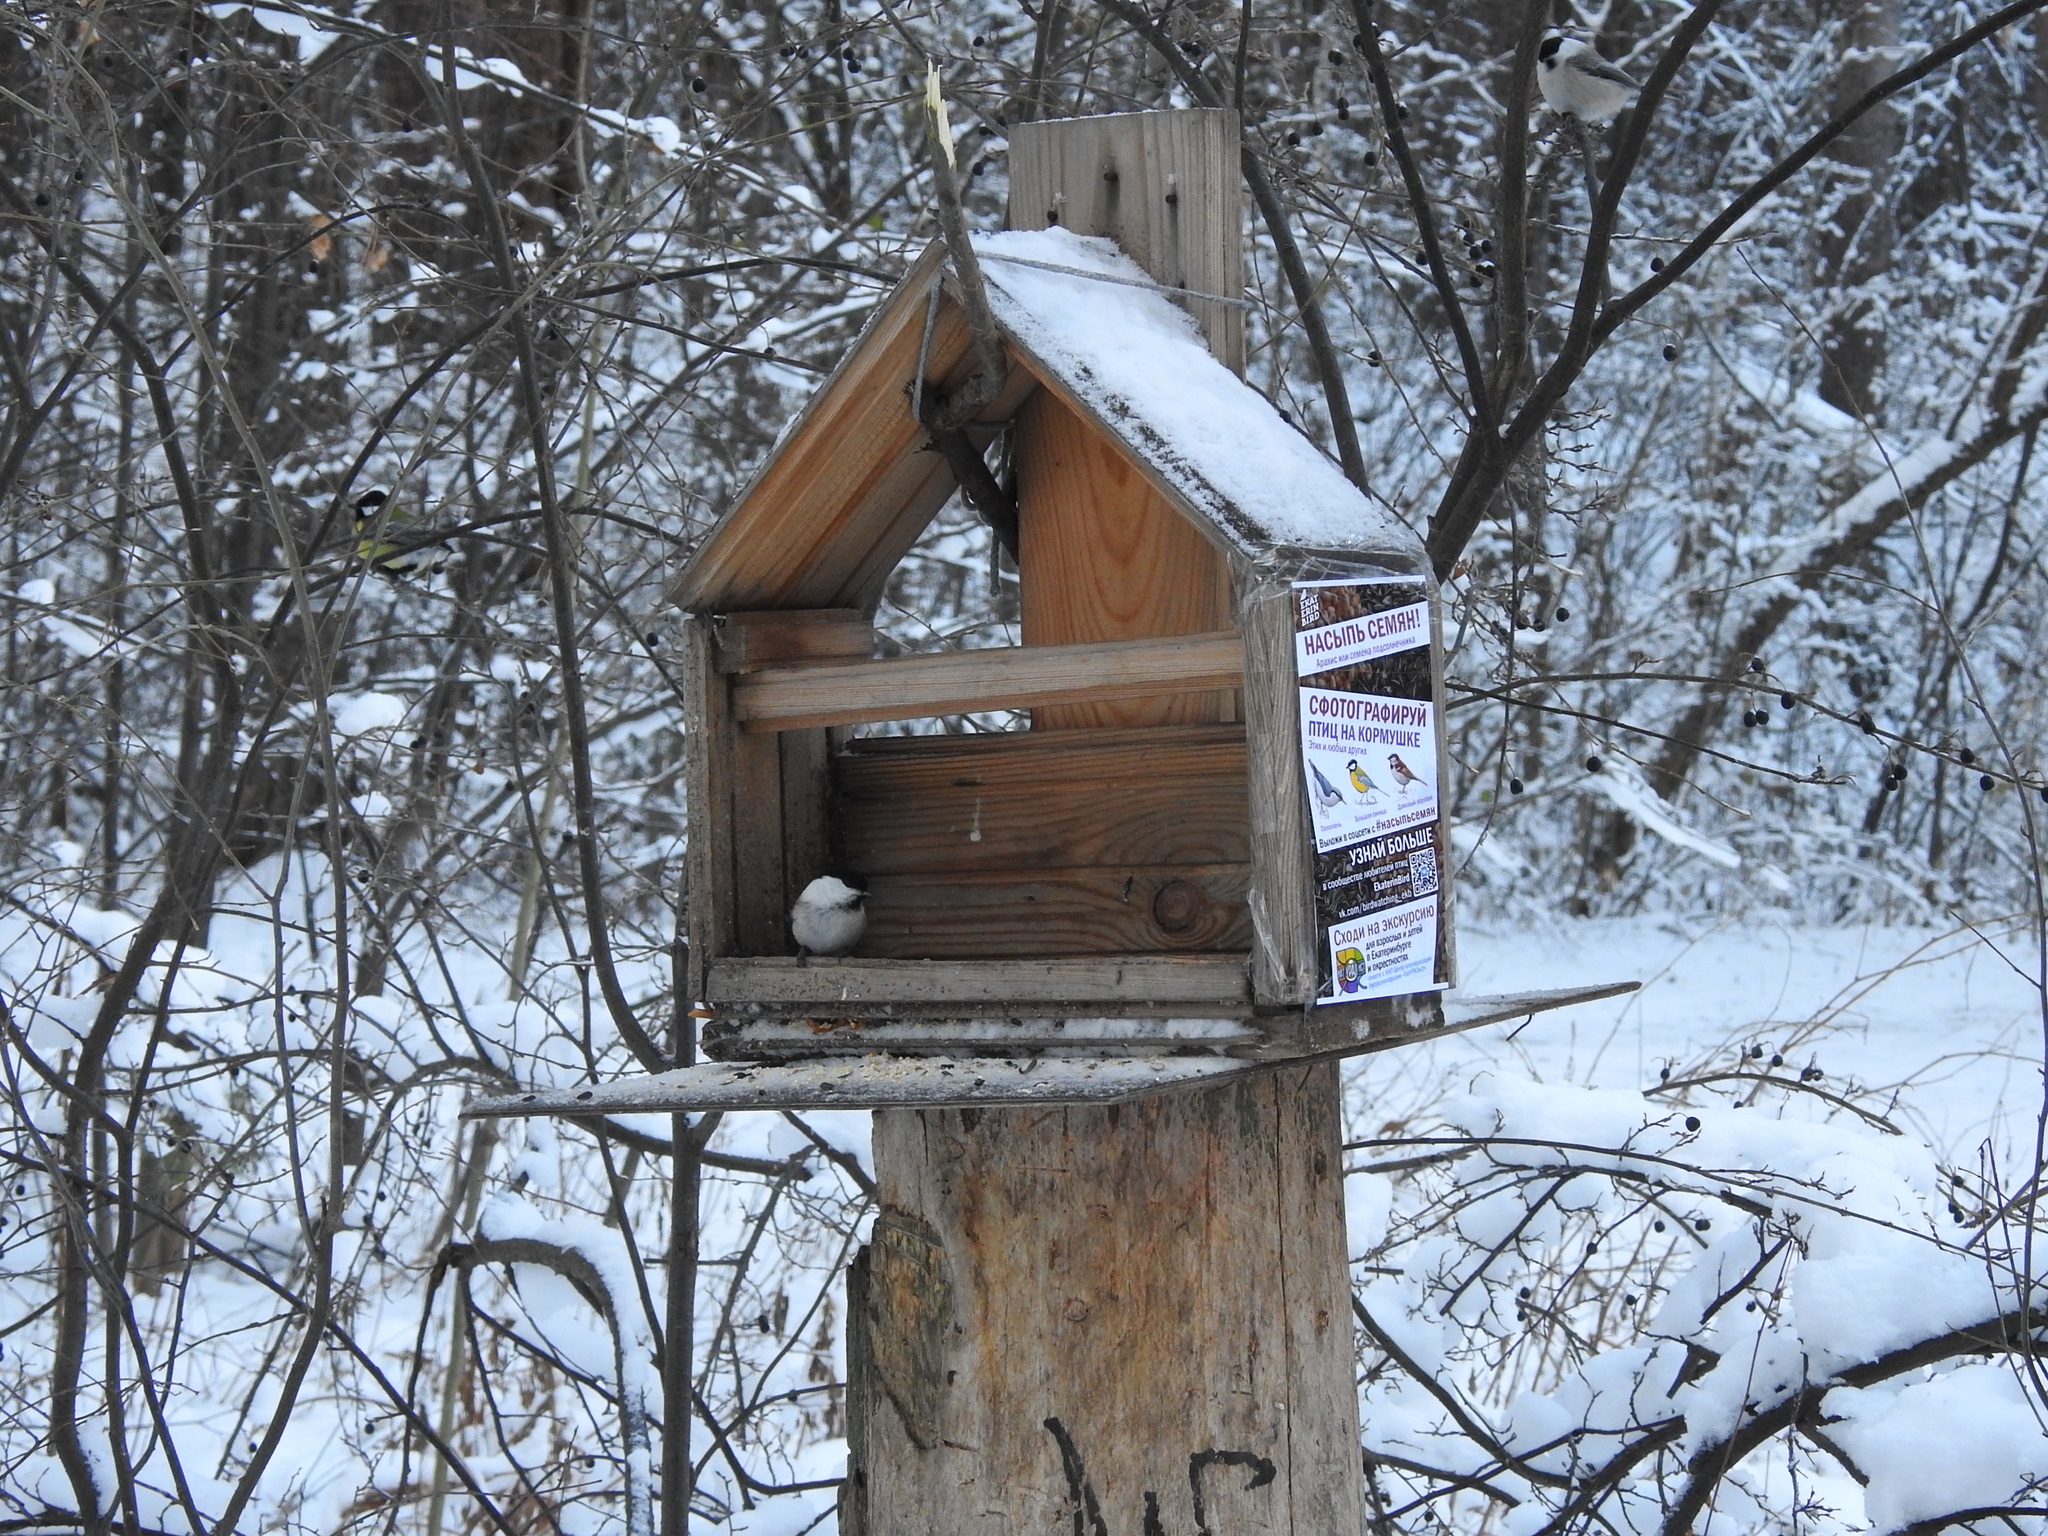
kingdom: Animalia
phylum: Chordata
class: Aves
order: Passeriformes
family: Paridae
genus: Poecile
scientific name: Poecile montanus
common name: Willow tit
